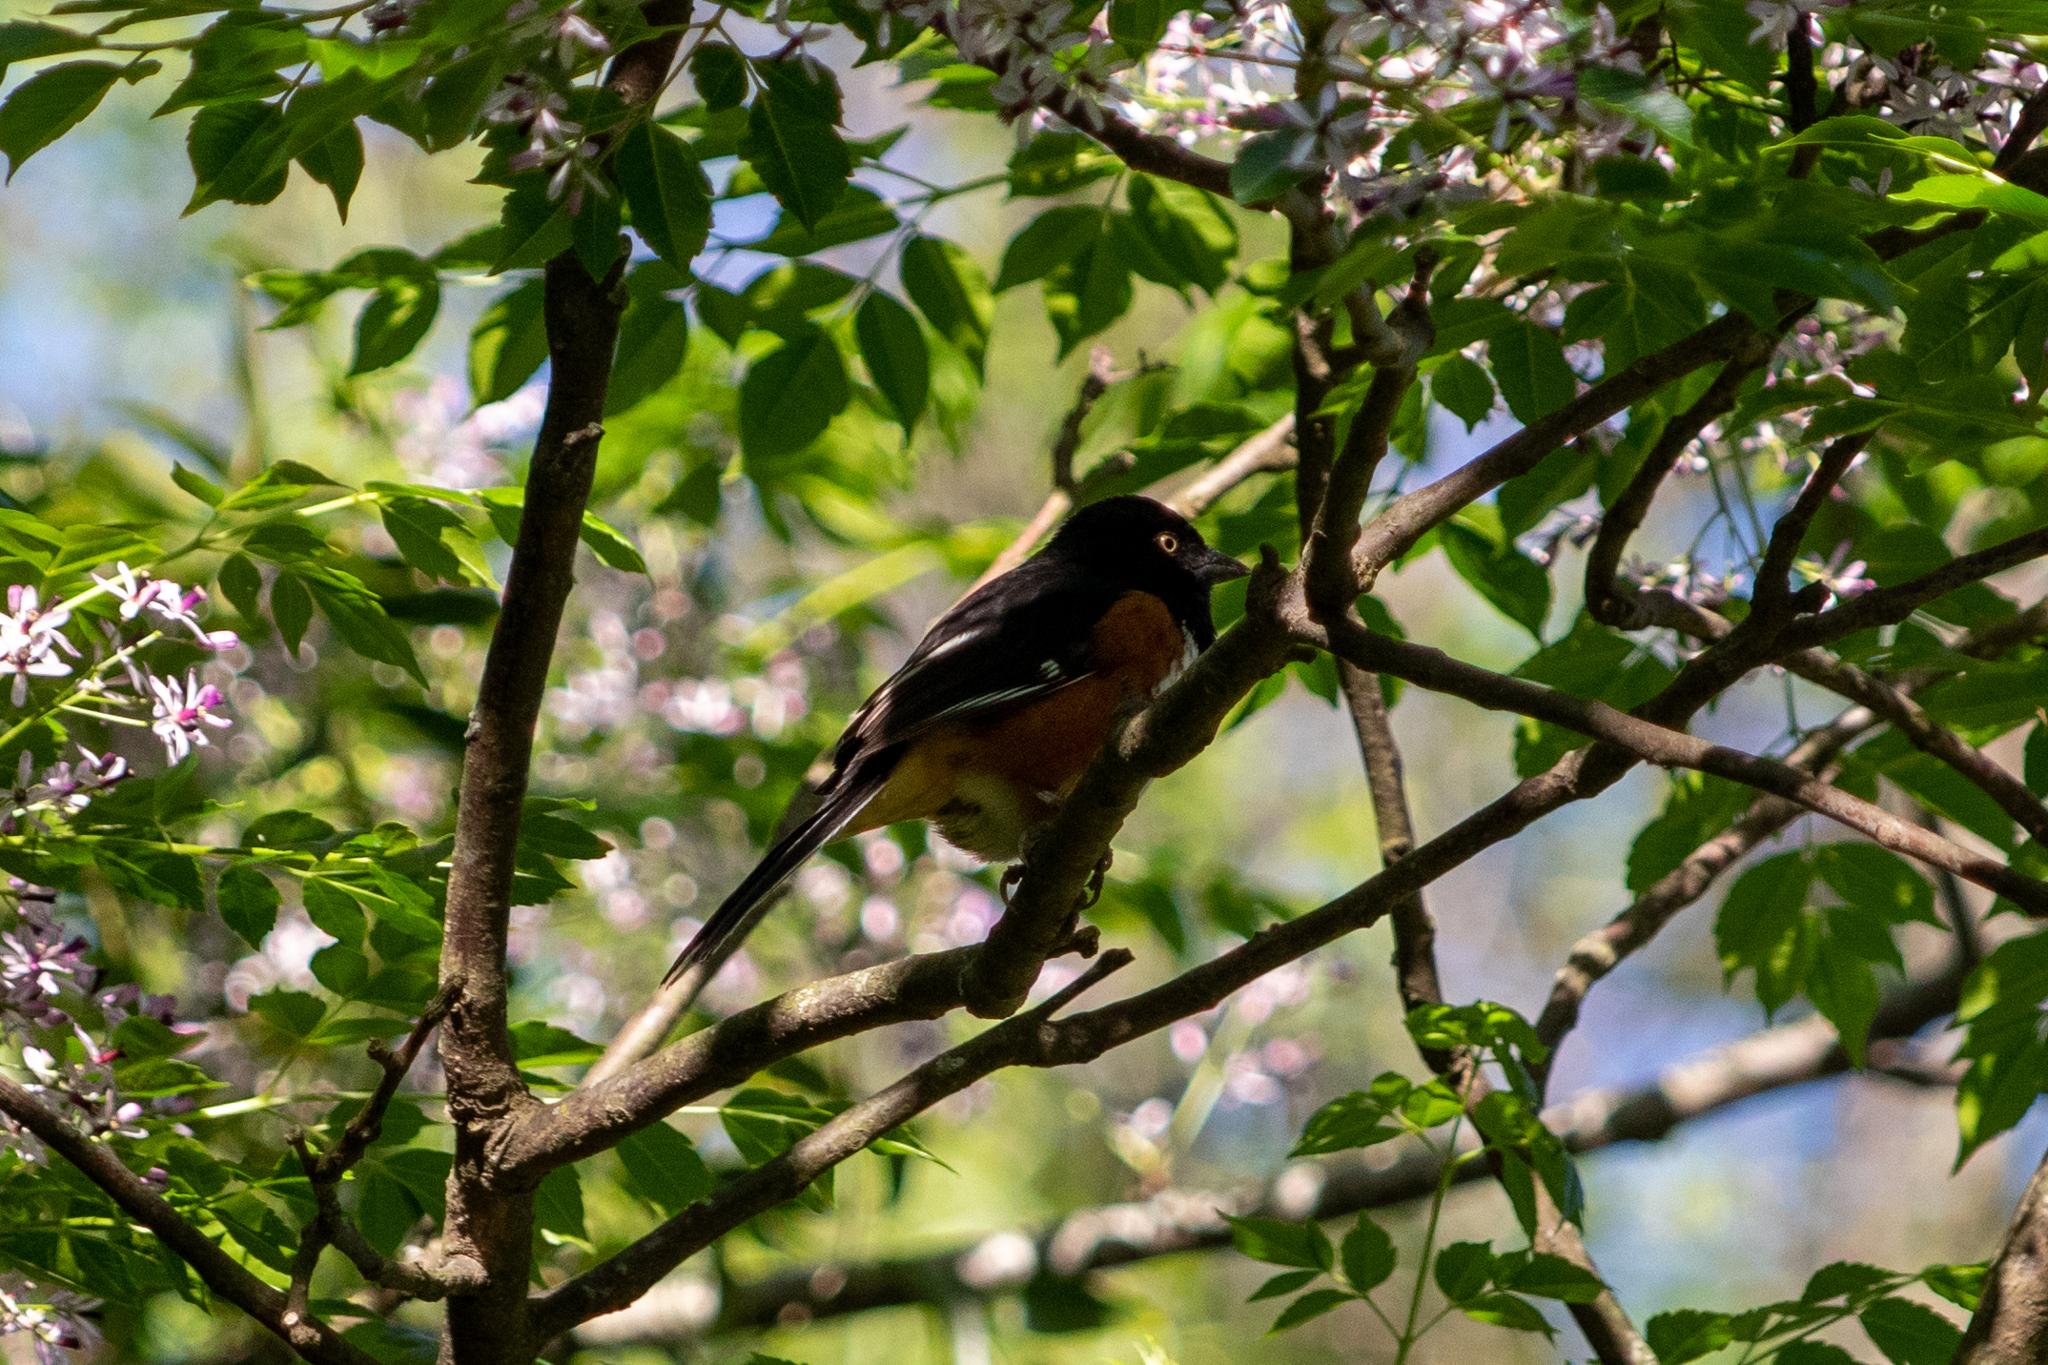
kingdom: Animalia
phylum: Chordata
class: Aves
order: Passeriformes
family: Passerellidae
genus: Pipilo
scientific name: Pipilo erythrophthalmus
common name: Eastern towhee
